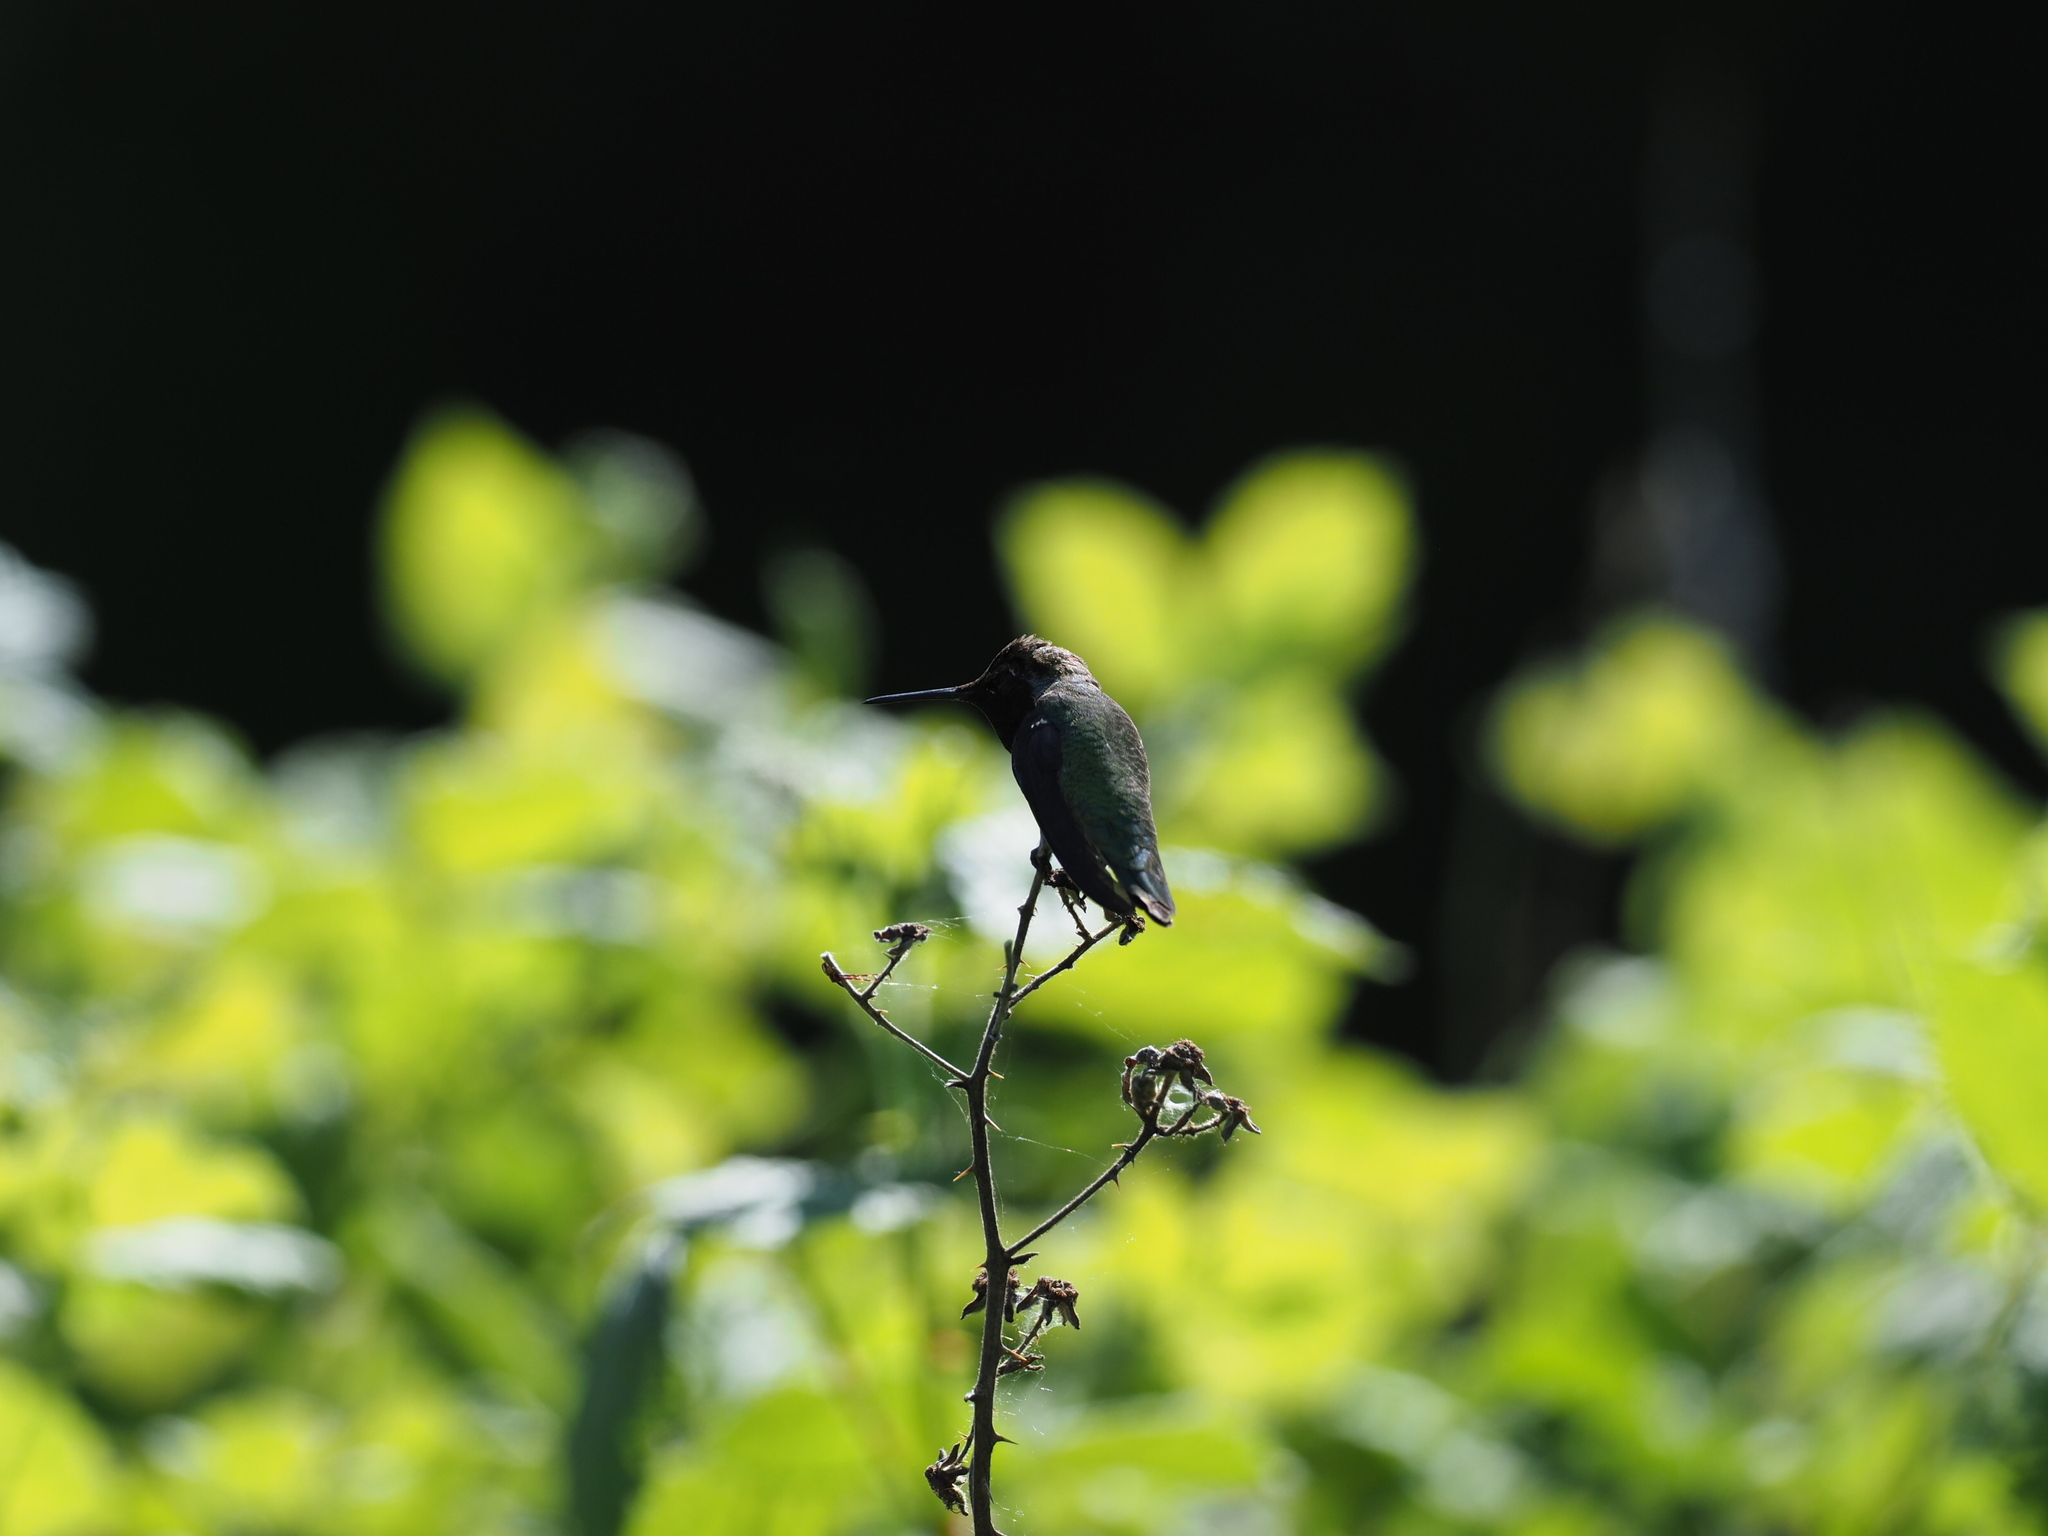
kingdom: Animalia
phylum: Chordata
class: Aves
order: Apodiformes
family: Trochilidae
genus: Calypte
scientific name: Calypte anna
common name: Anna's hummingbird
